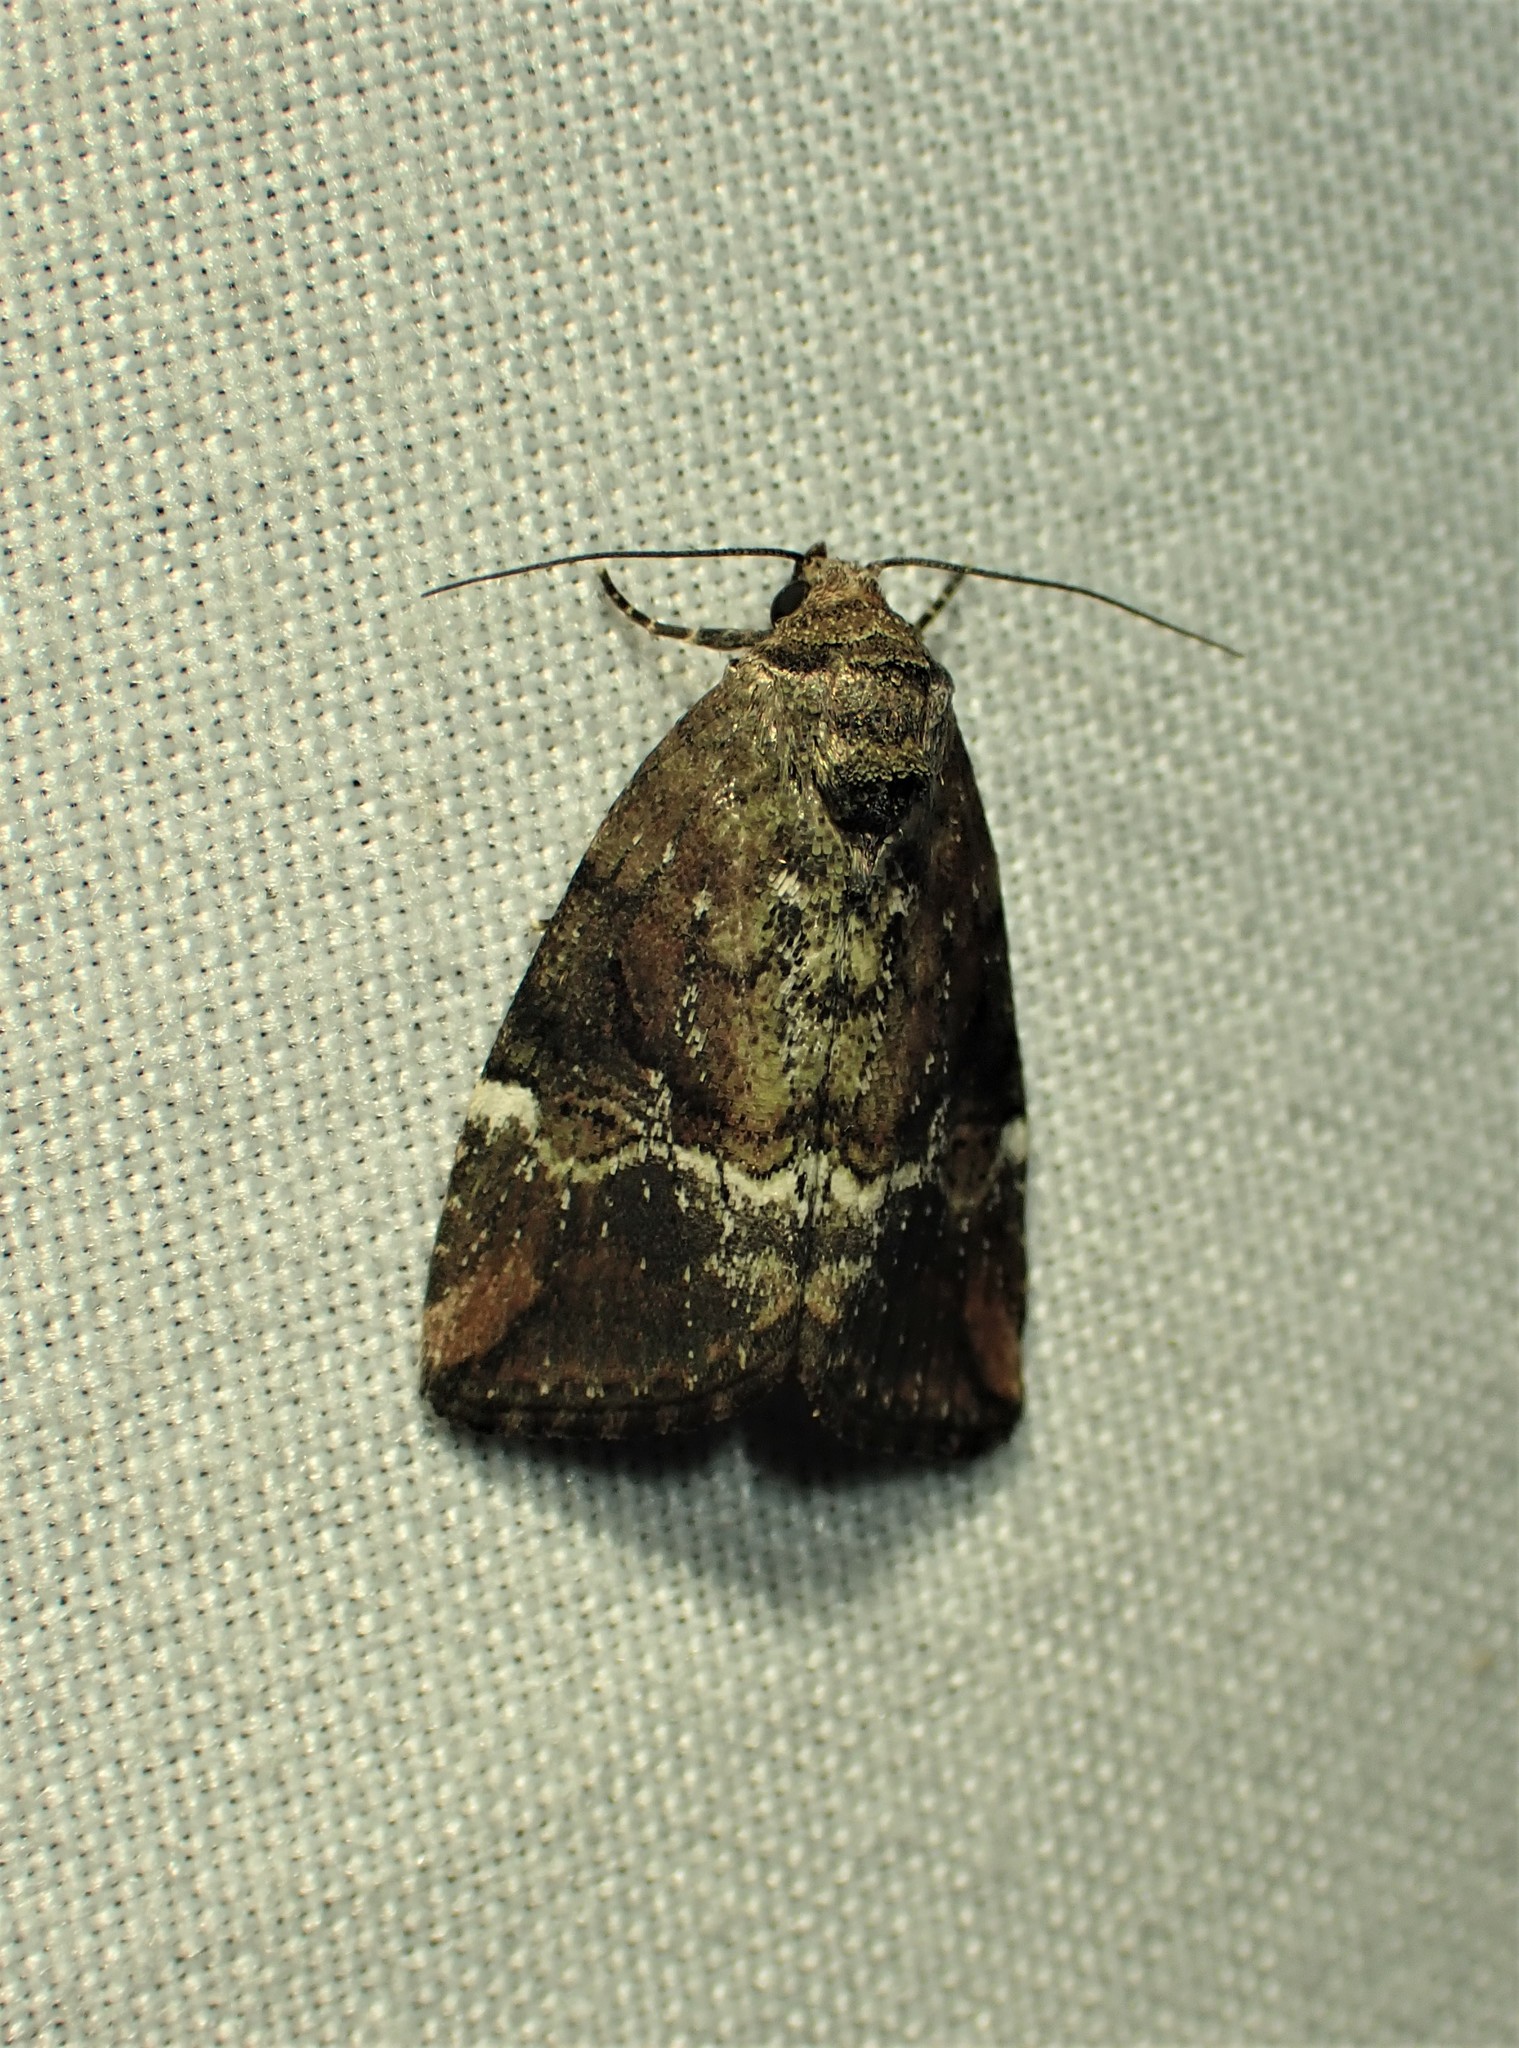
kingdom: Animalia
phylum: Arthropoda
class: Insecta
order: Lepidoptera
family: Noctuidae
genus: Elaphria
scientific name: Elaphria versicolor
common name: Fir harlequin
